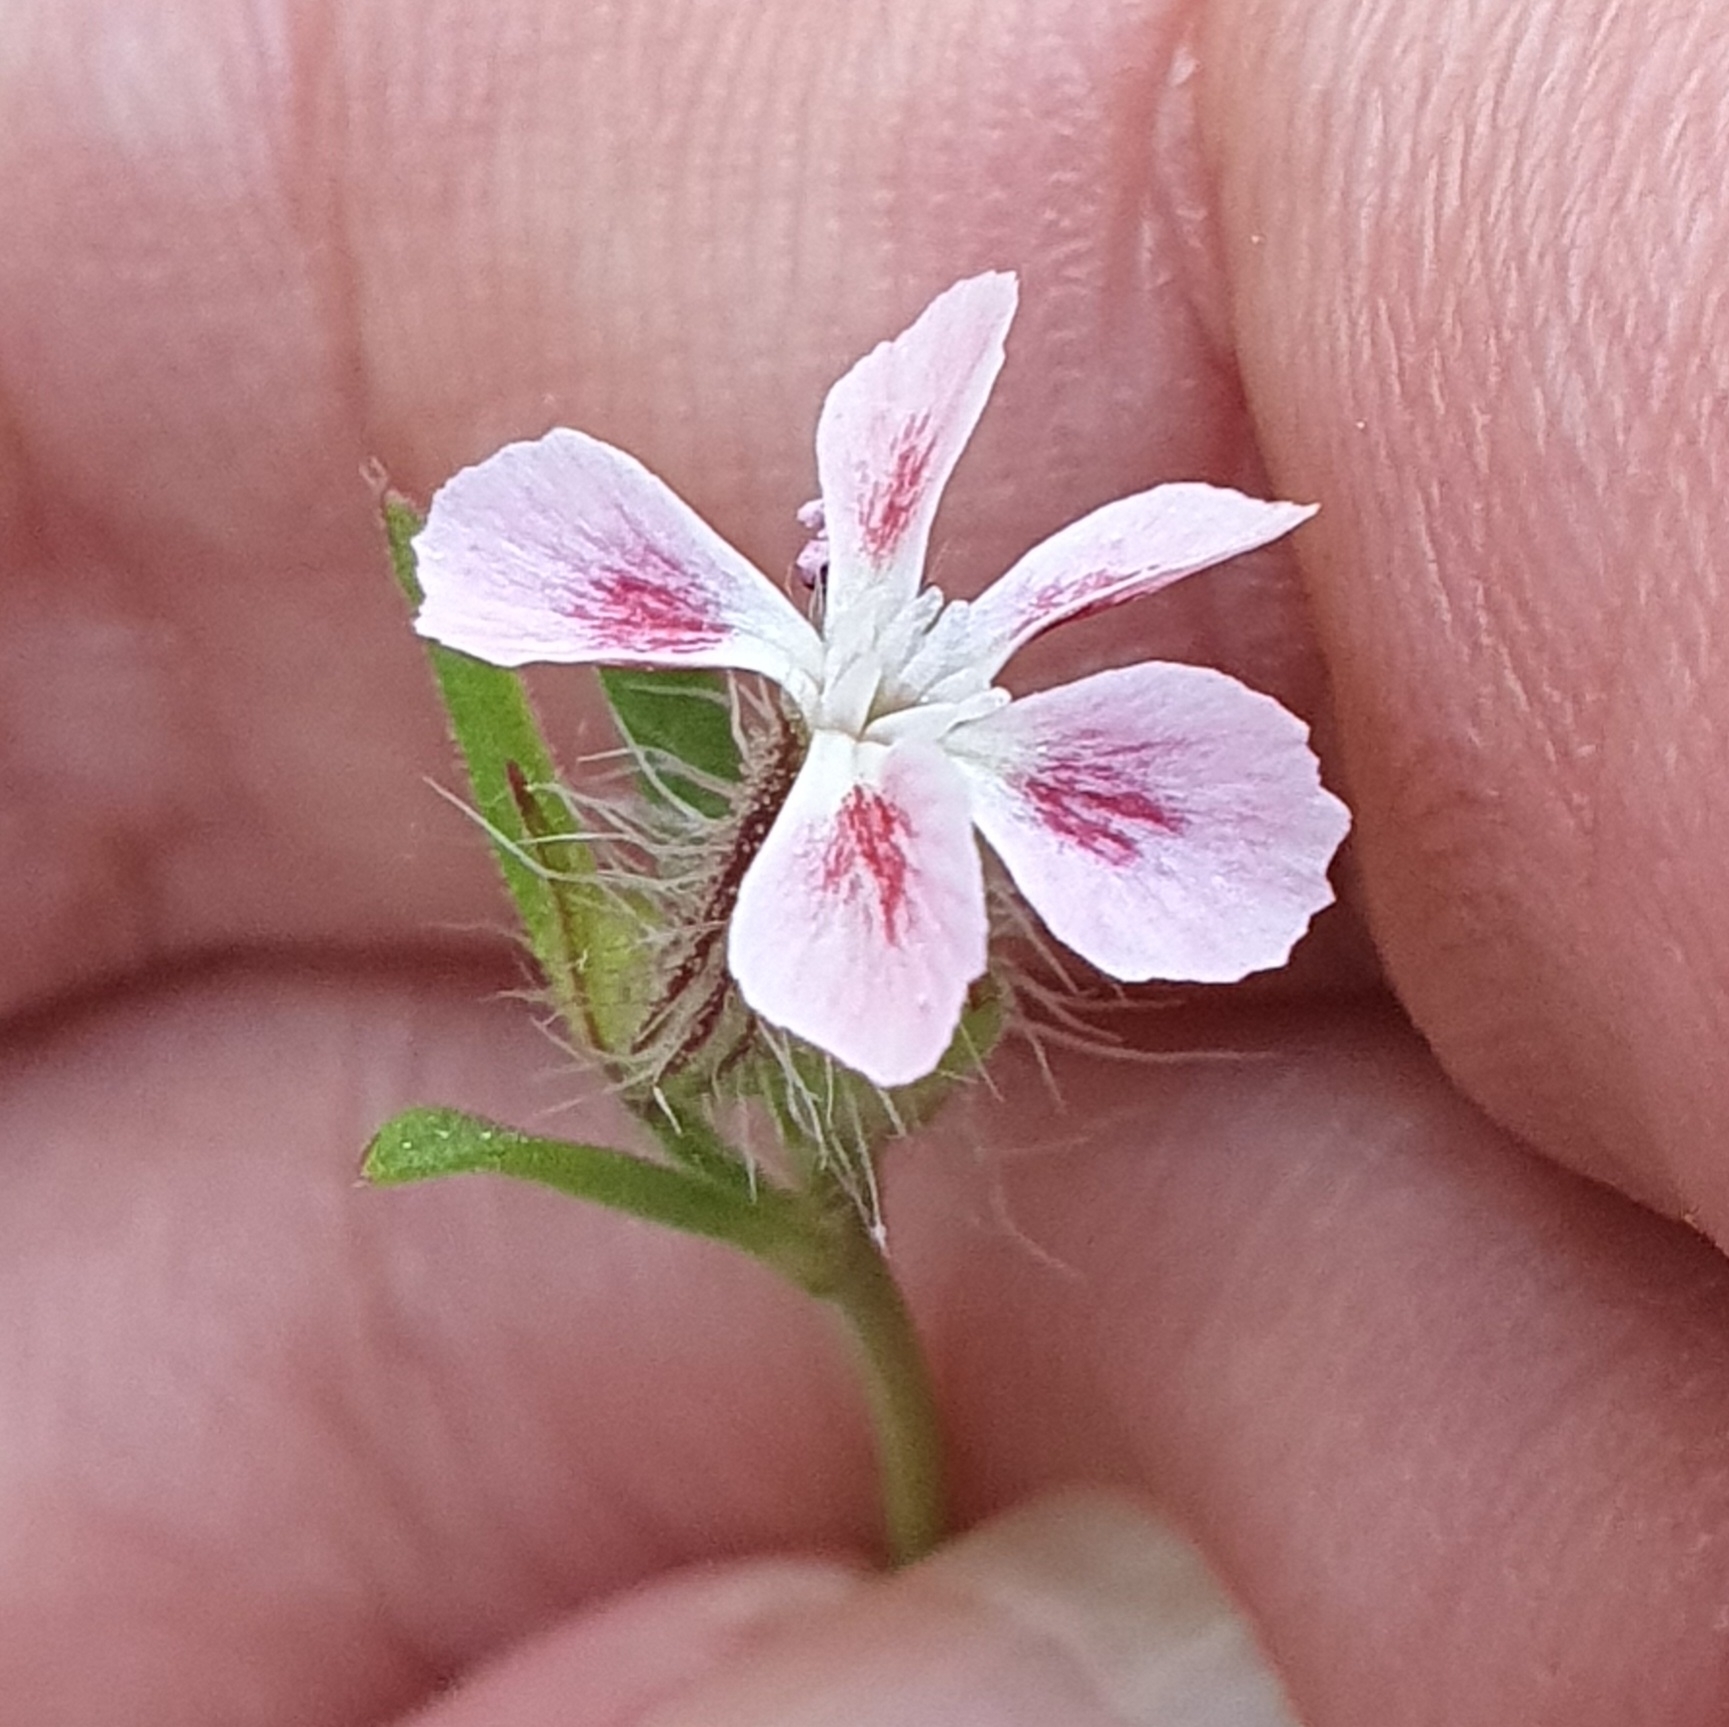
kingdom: Plantae
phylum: Tracheophyta
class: Magnoliopsida
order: Caryophyllales
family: Caryophyllaceae
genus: Silene
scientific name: Silene gallica
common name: Small-flowered catchfly
